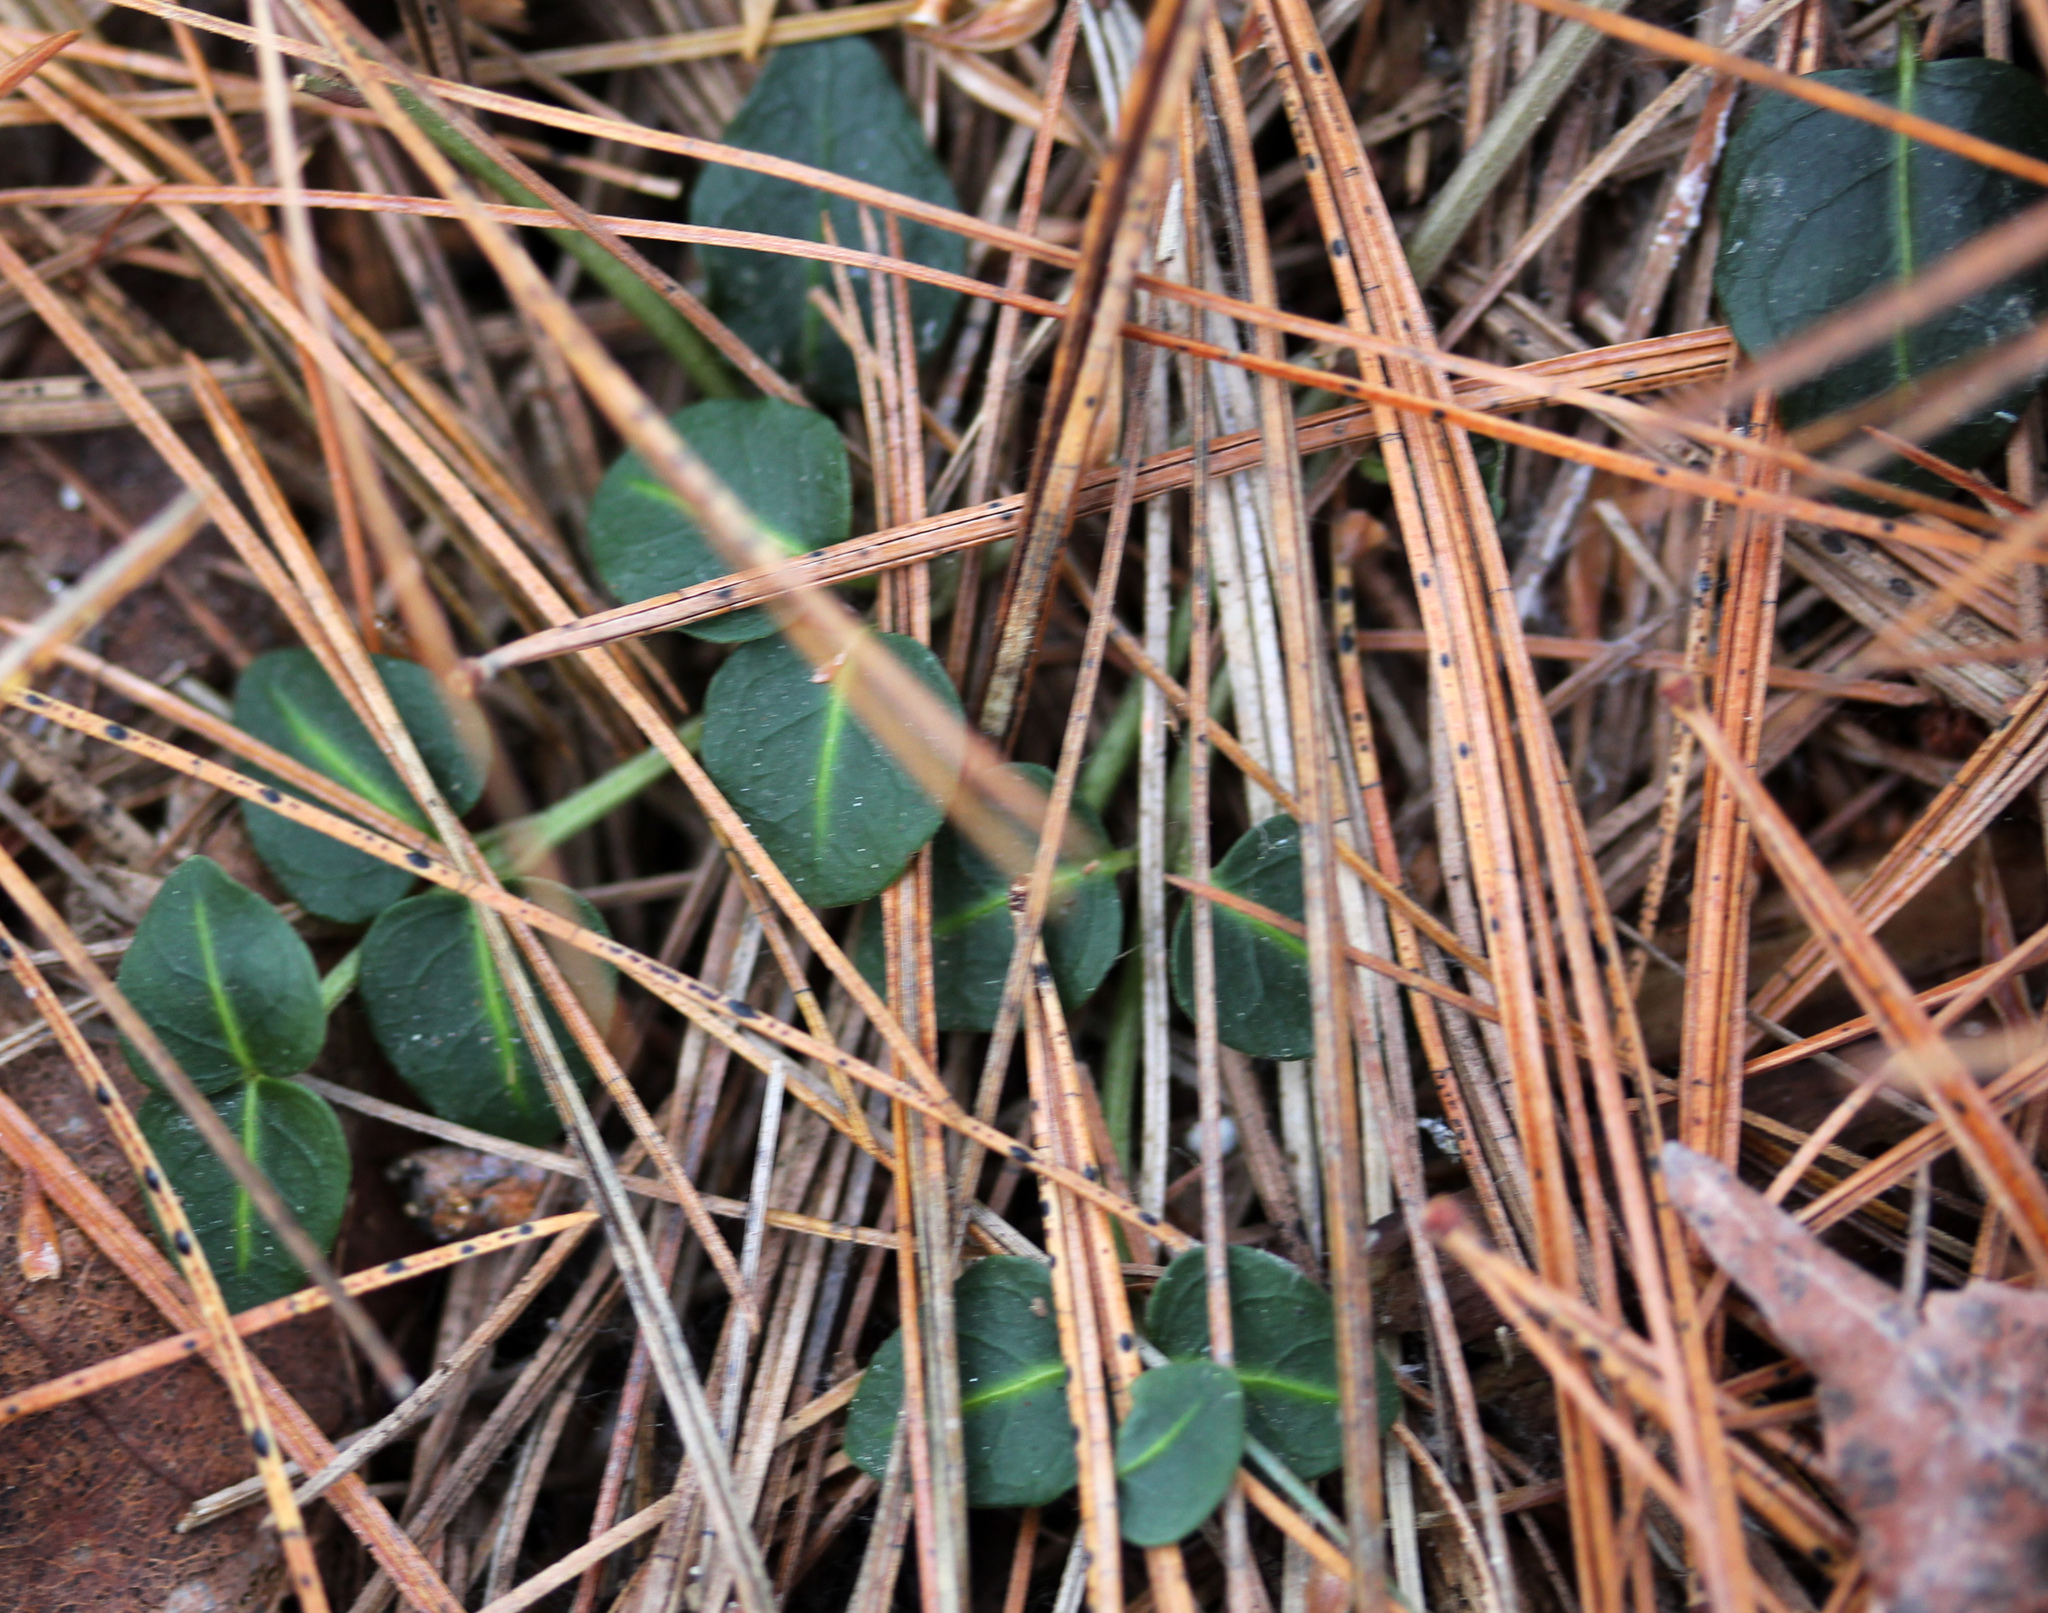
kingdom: Plantae
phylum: Tracheophyta
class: Magnoliopsida
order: Gentianales
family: Rubiaceae
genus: Mitchella
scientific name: Mitchella repens
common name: Partridge-berry
